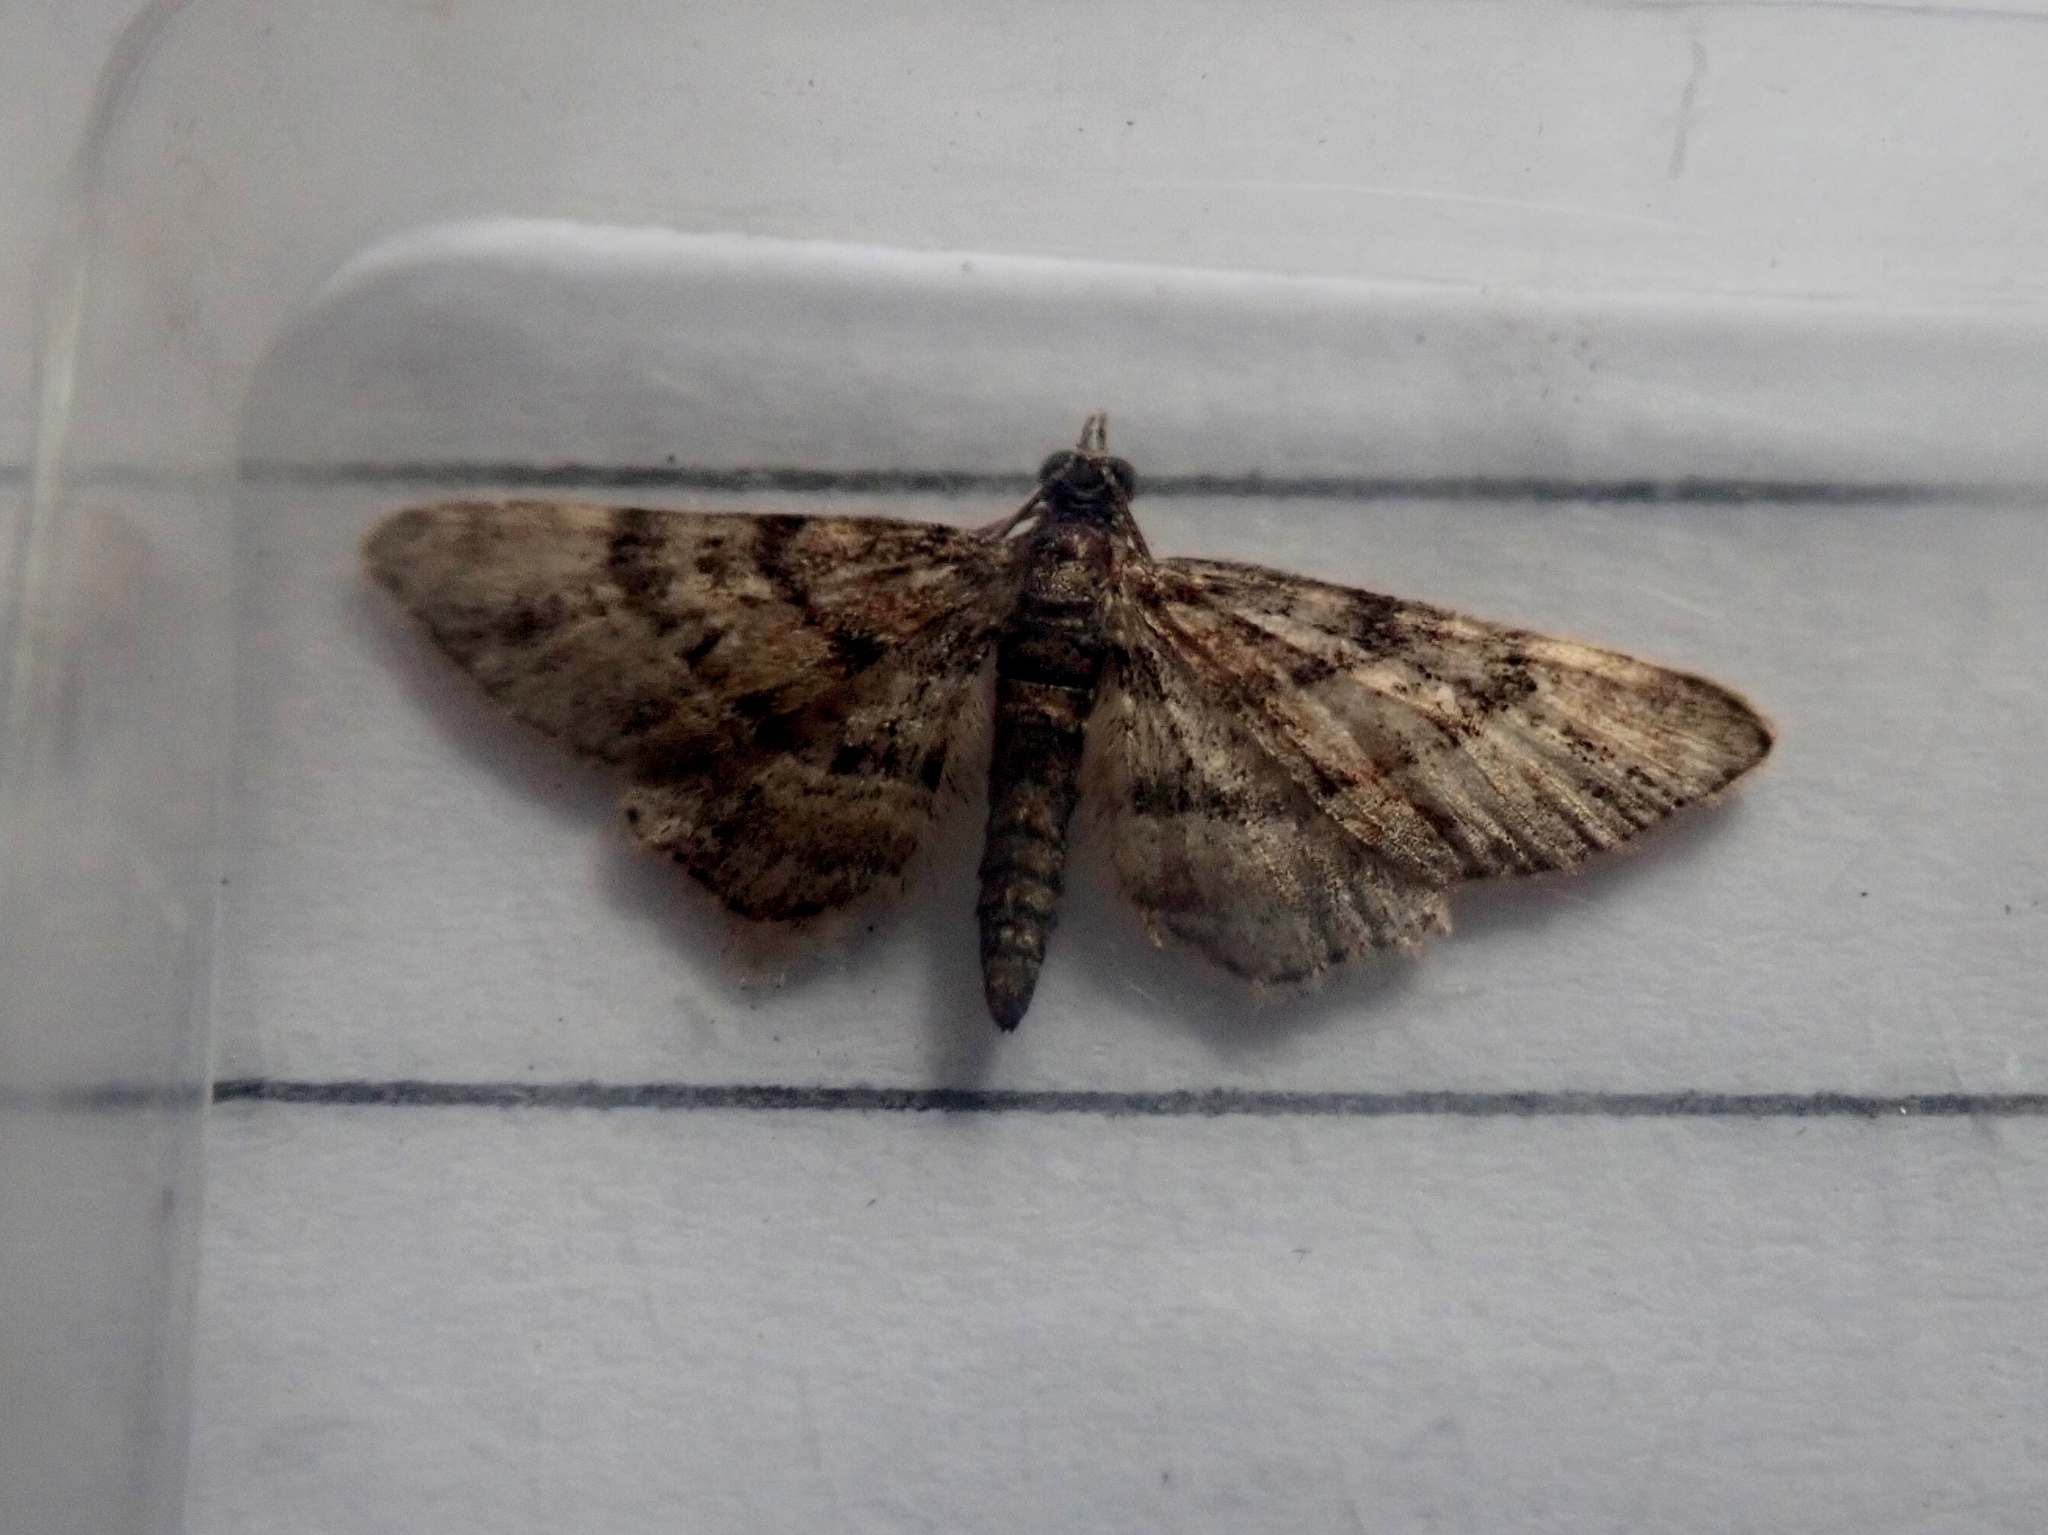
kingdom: Animalia
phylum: Arthropoda
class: Insecta
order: Lepidoptera
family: Geometridae
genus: Gymnoscelis
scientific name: Gymnoscelis rufifasciata
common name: Double-striped pug
